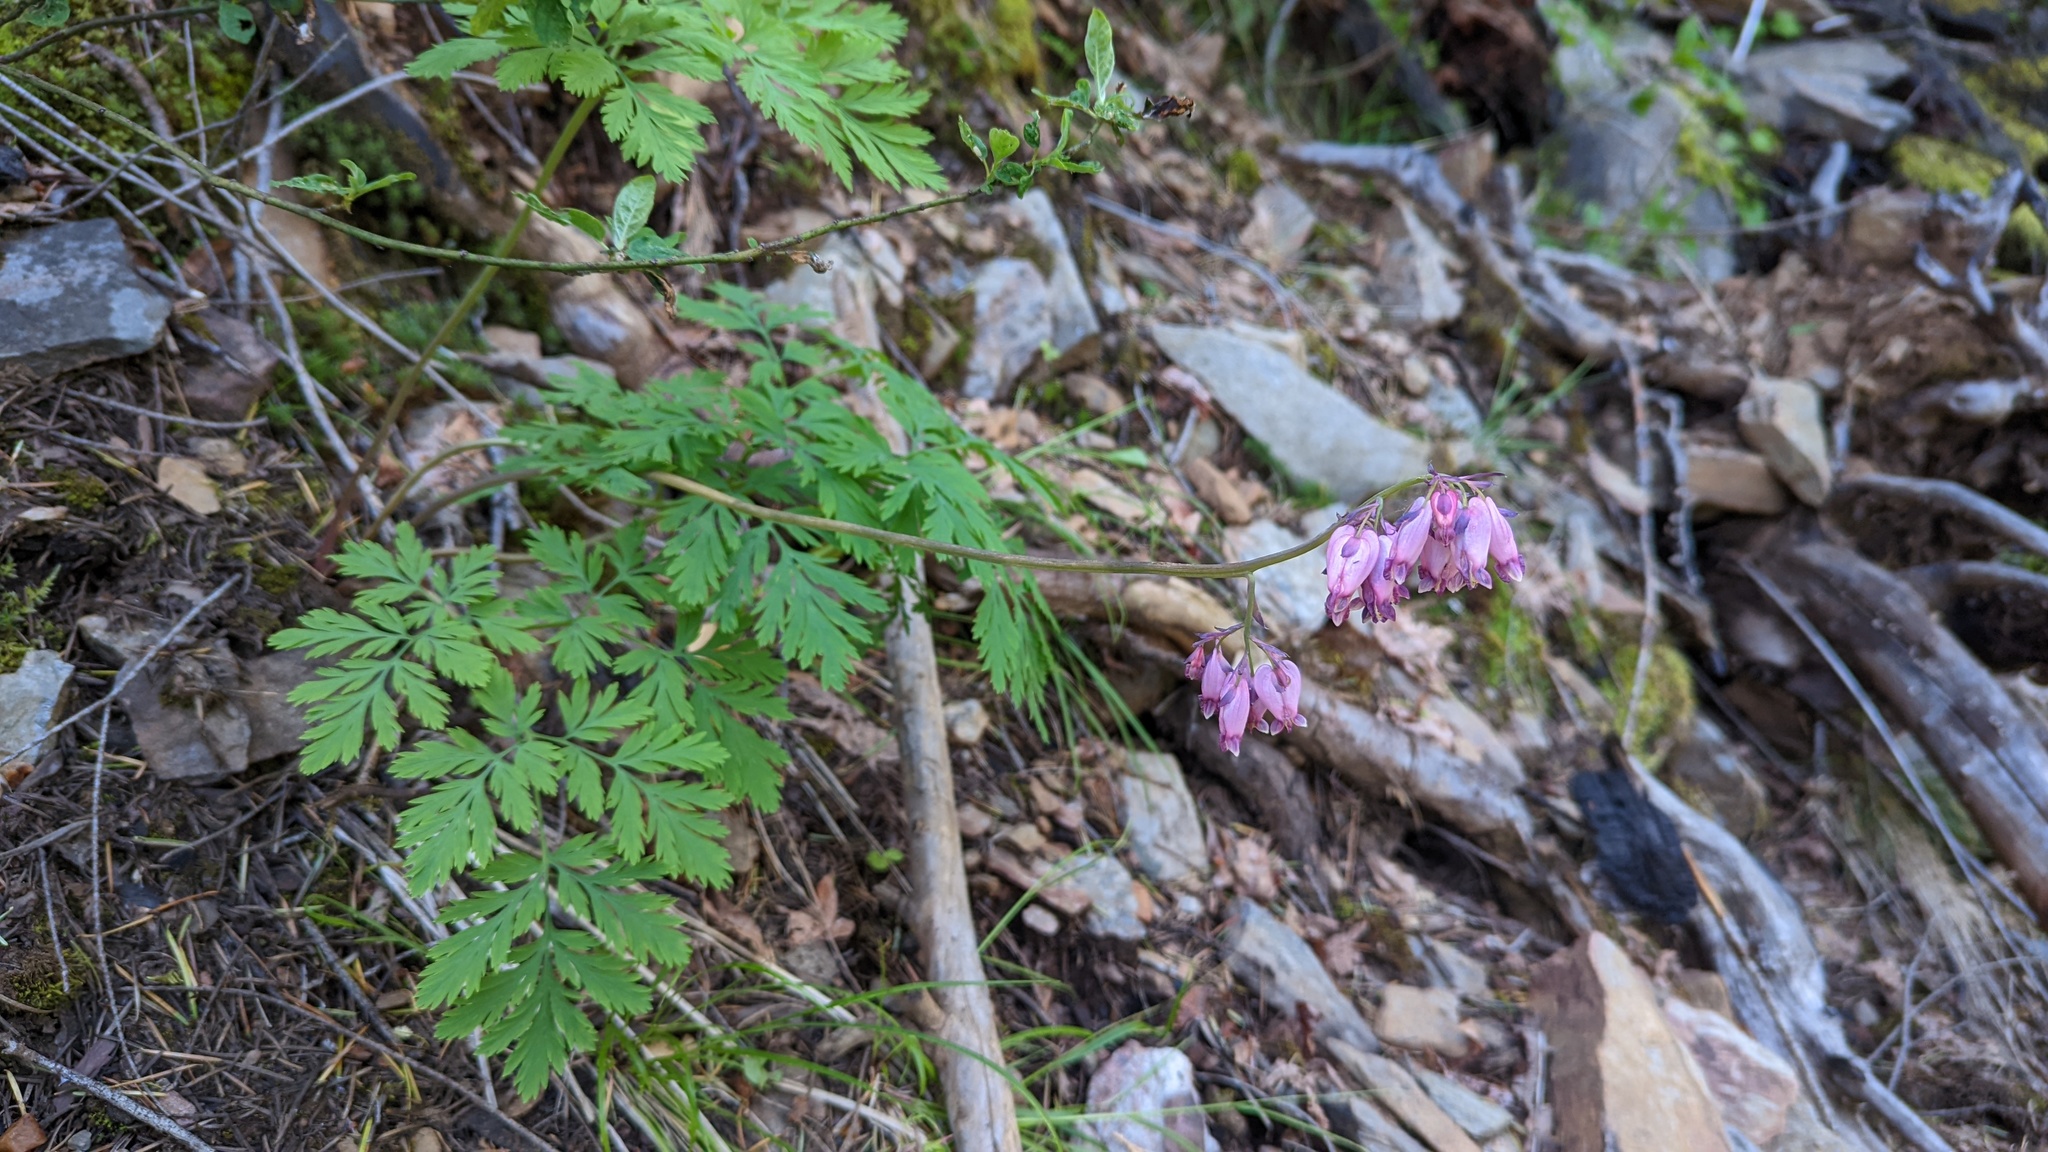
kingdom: Plantae
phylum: Tracheophyta
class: Magnoliopsida
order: Ranunculales
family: Papaveraceae
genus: Dicentra
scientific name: Dicentra formosa
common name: Bleeding-heart
